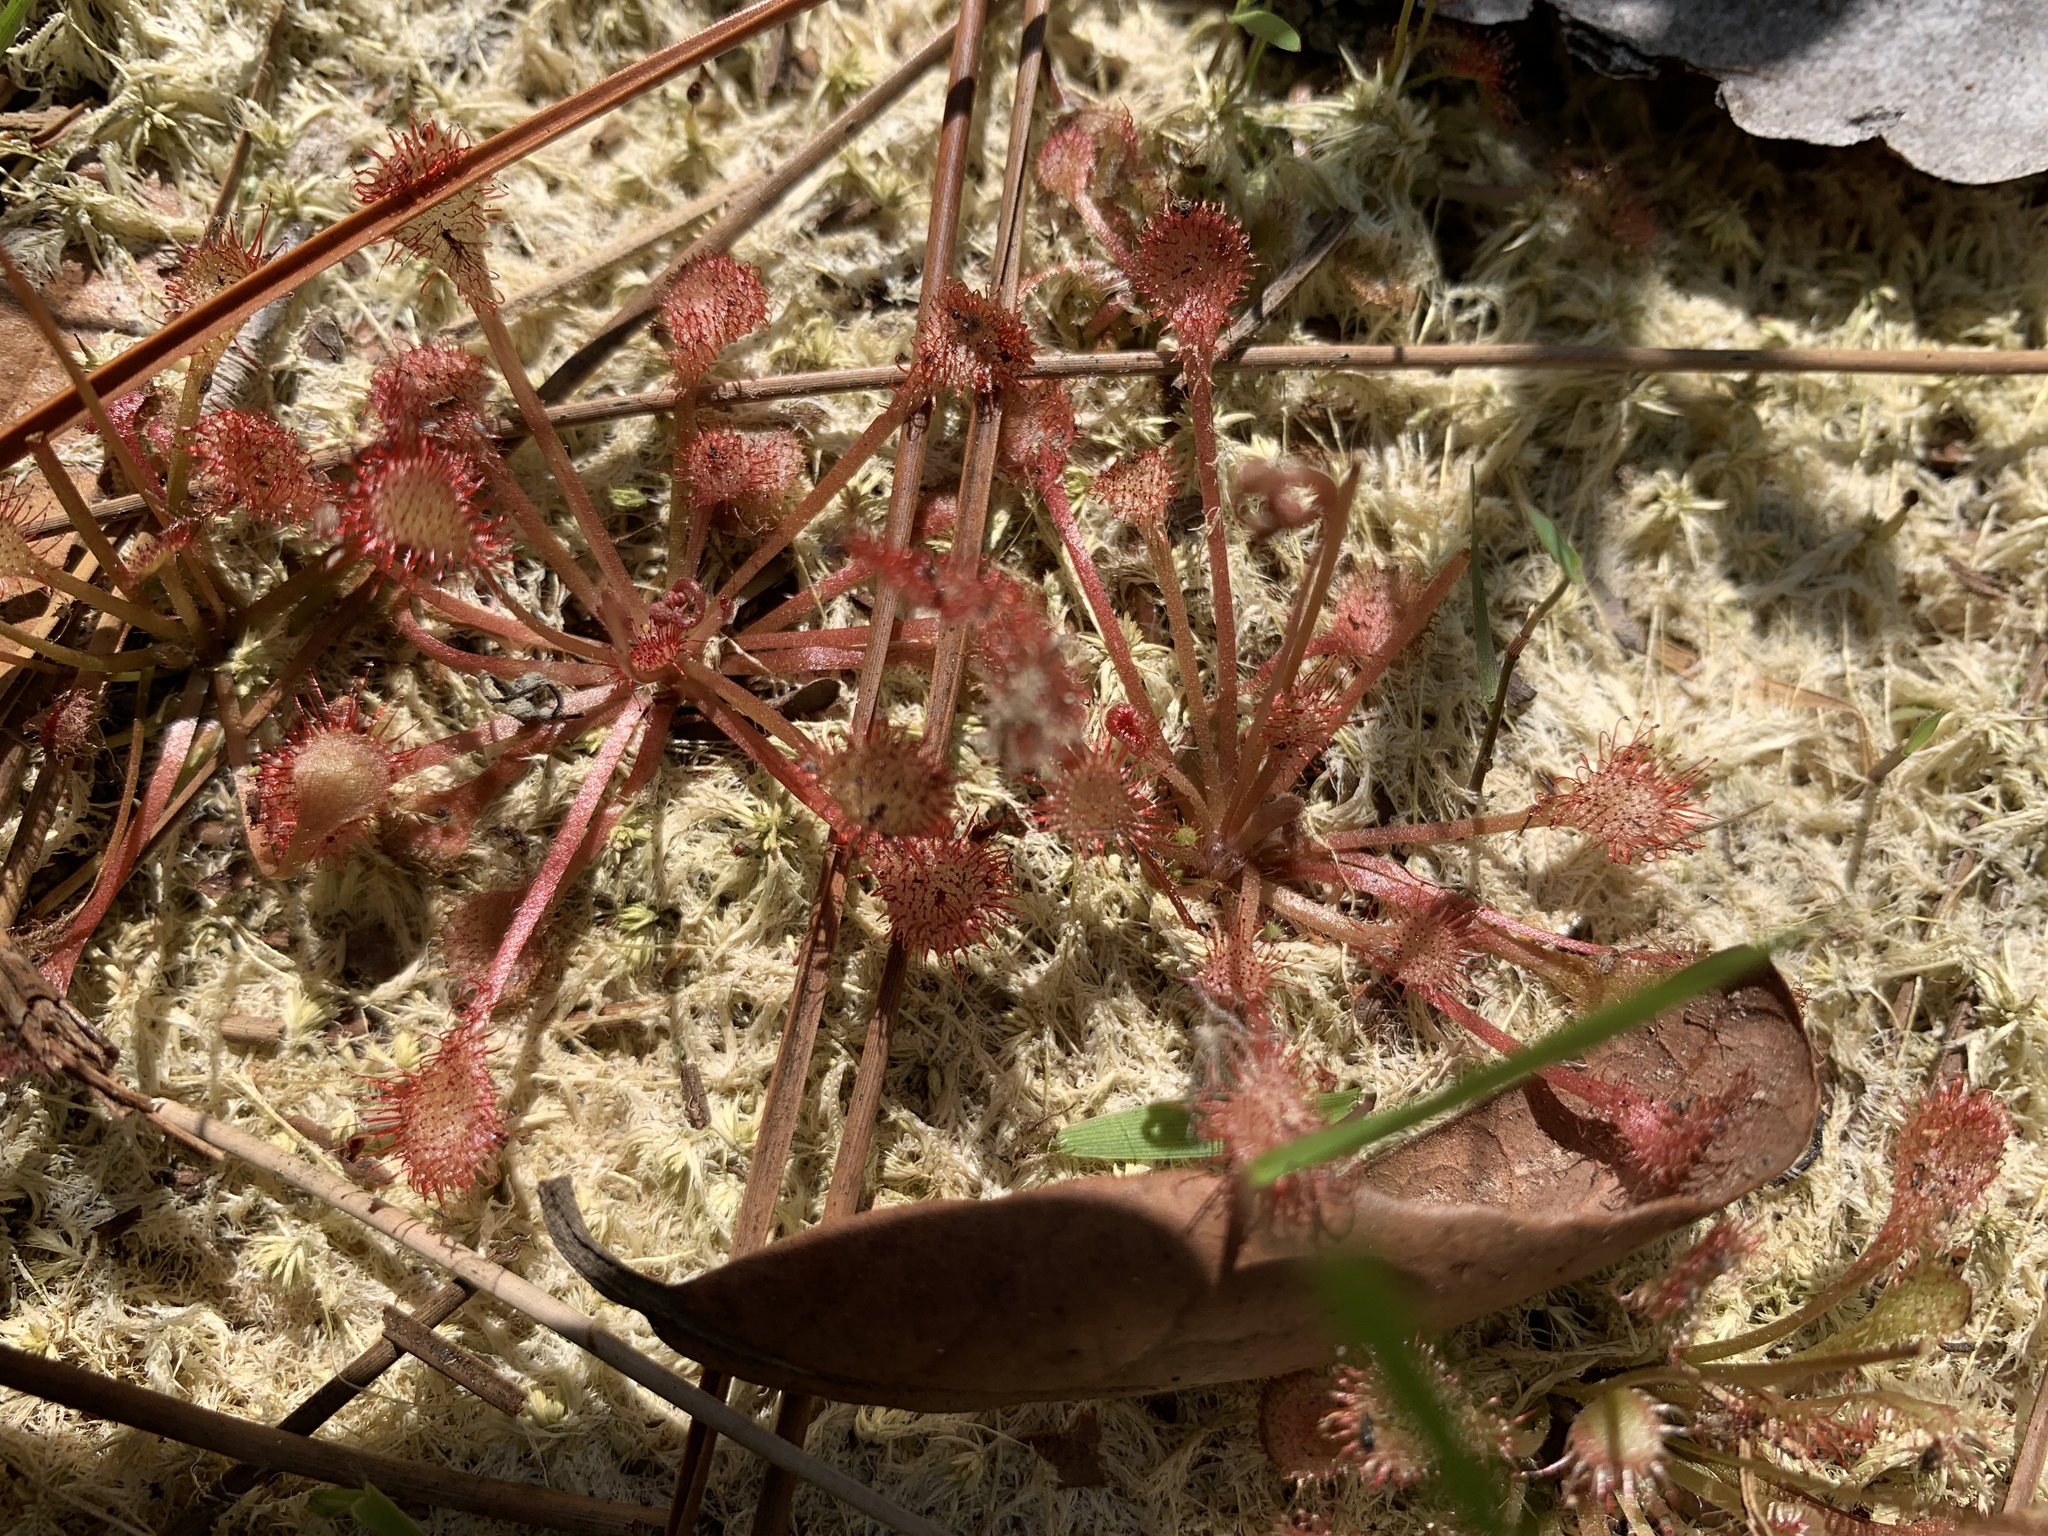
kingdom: Plantae
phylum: Tracheophyta
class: Magnoliopsida
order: Caryophyllales
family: Droseraceae
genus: Drosera
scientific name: Drosera capillaris
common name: Pink sundew
